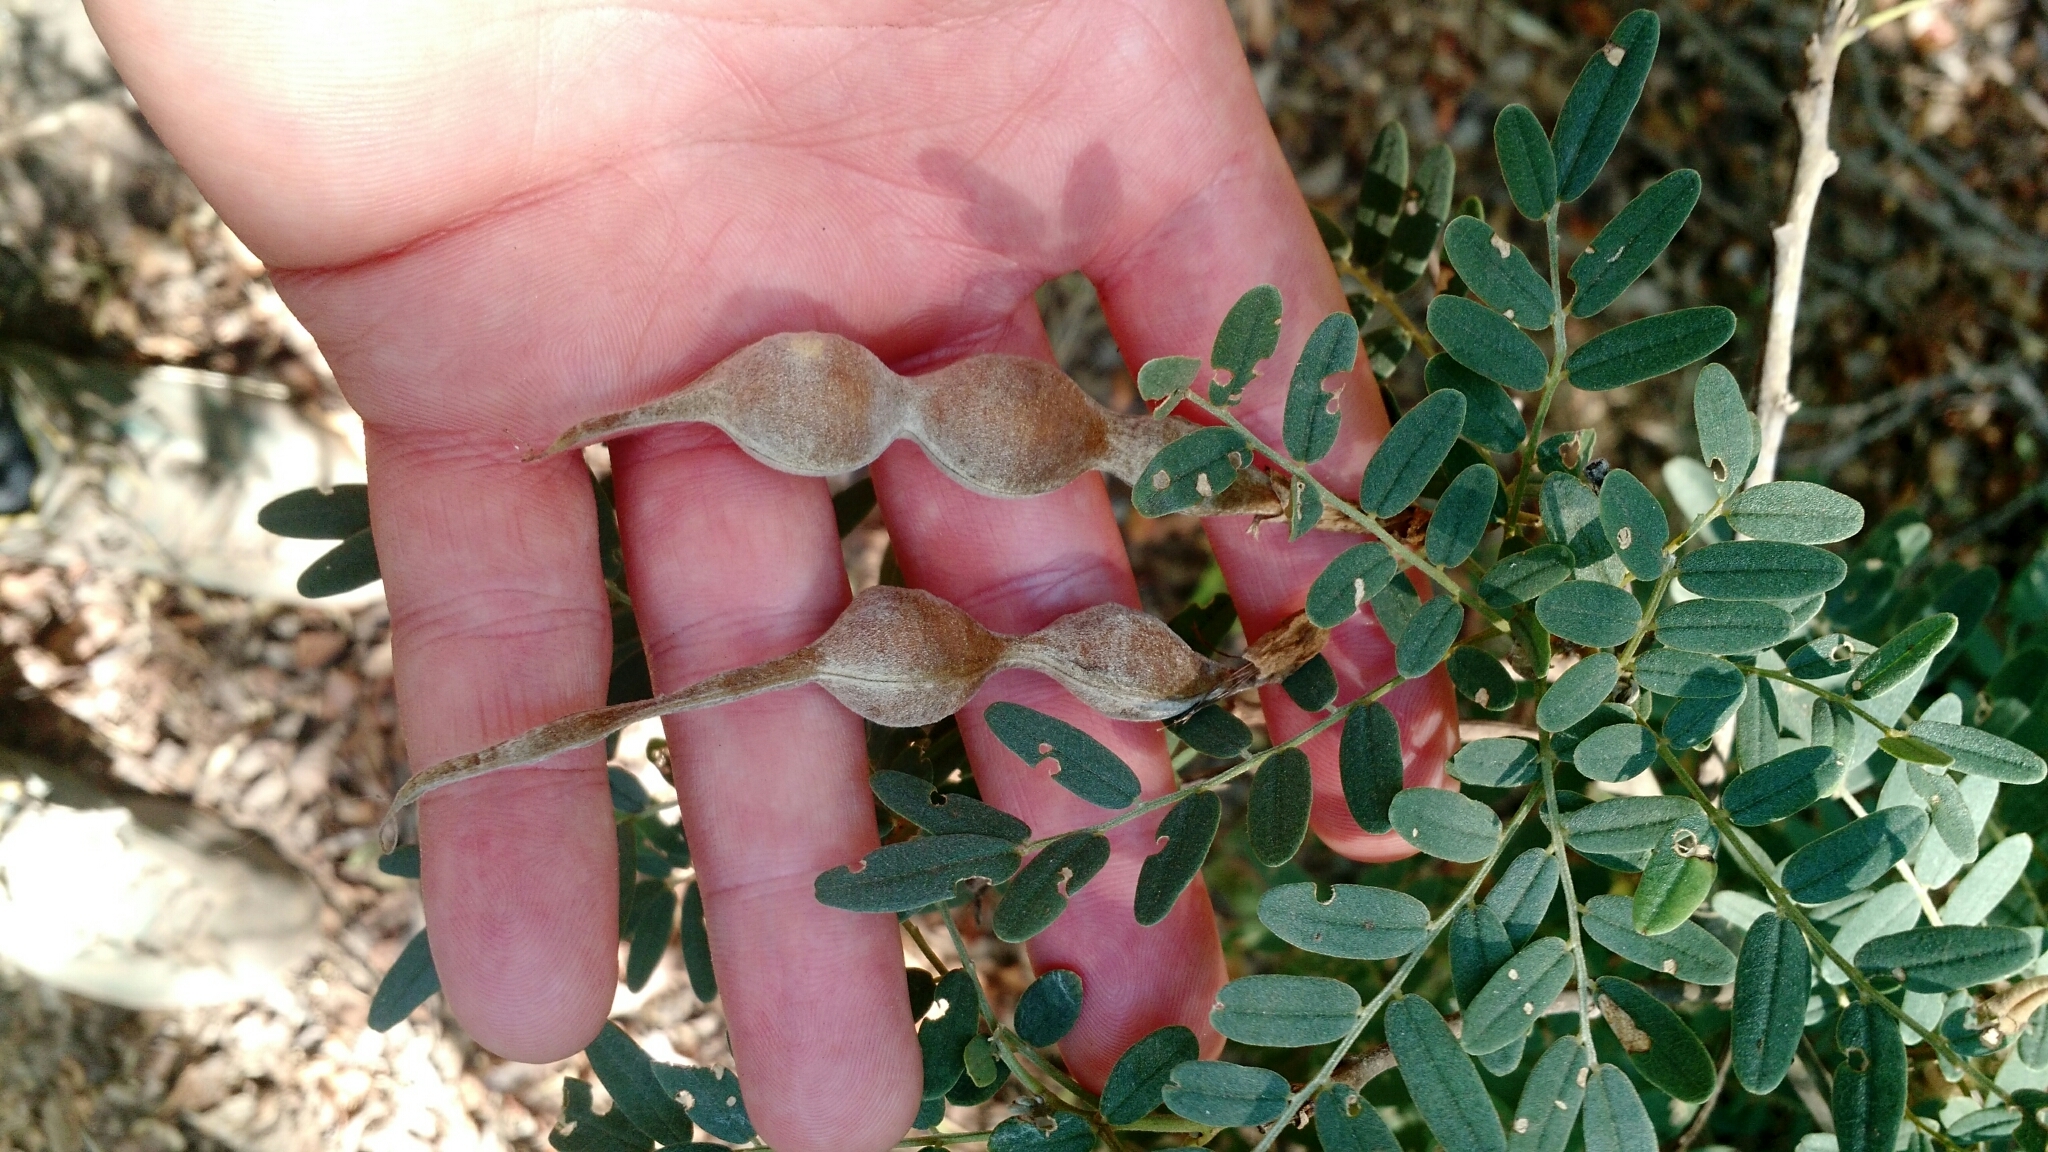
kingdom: Plantae
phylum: Tracheophyta
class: Magnoliopsida
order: Fabales
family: Fabaceae
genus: Sophora
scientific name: Sophora macrocarpa
